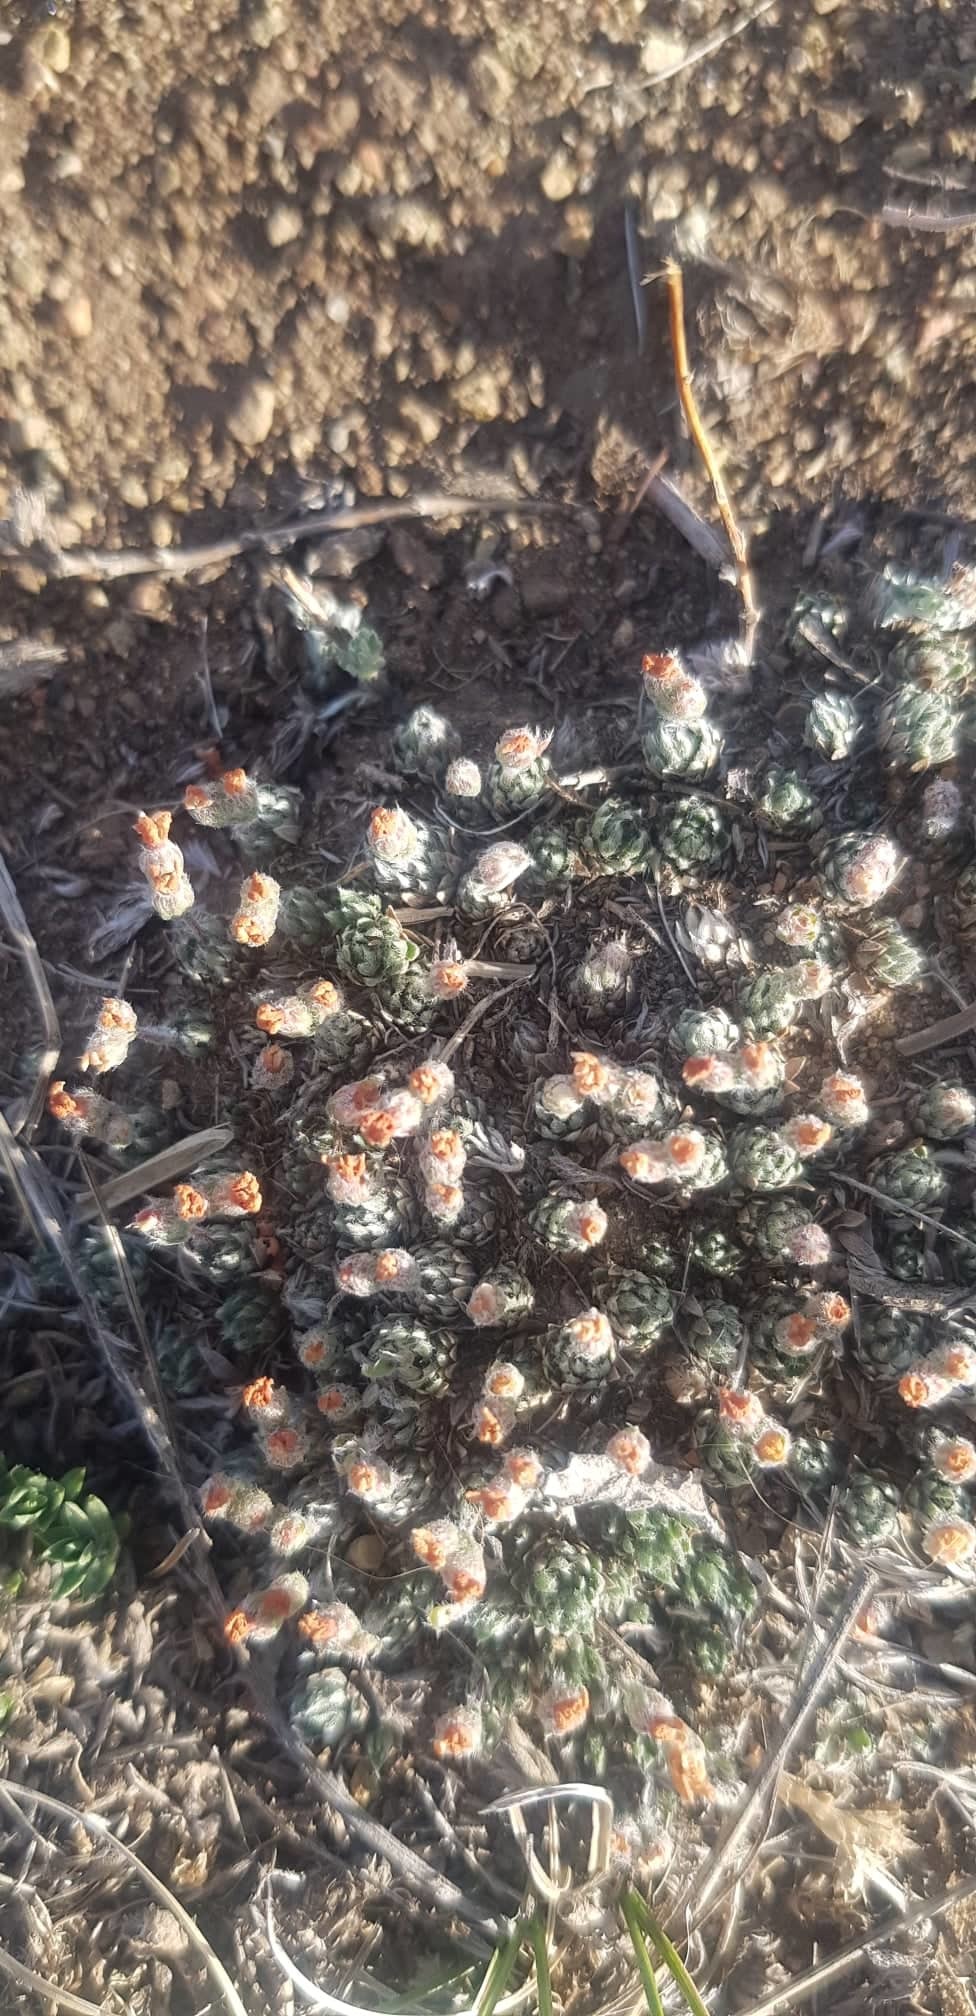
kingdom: Plantae
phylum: Tracheophyta
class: Magnoliopsida
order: Ericales
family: Primulaceae
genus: Androsace
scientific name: Androsace incana
